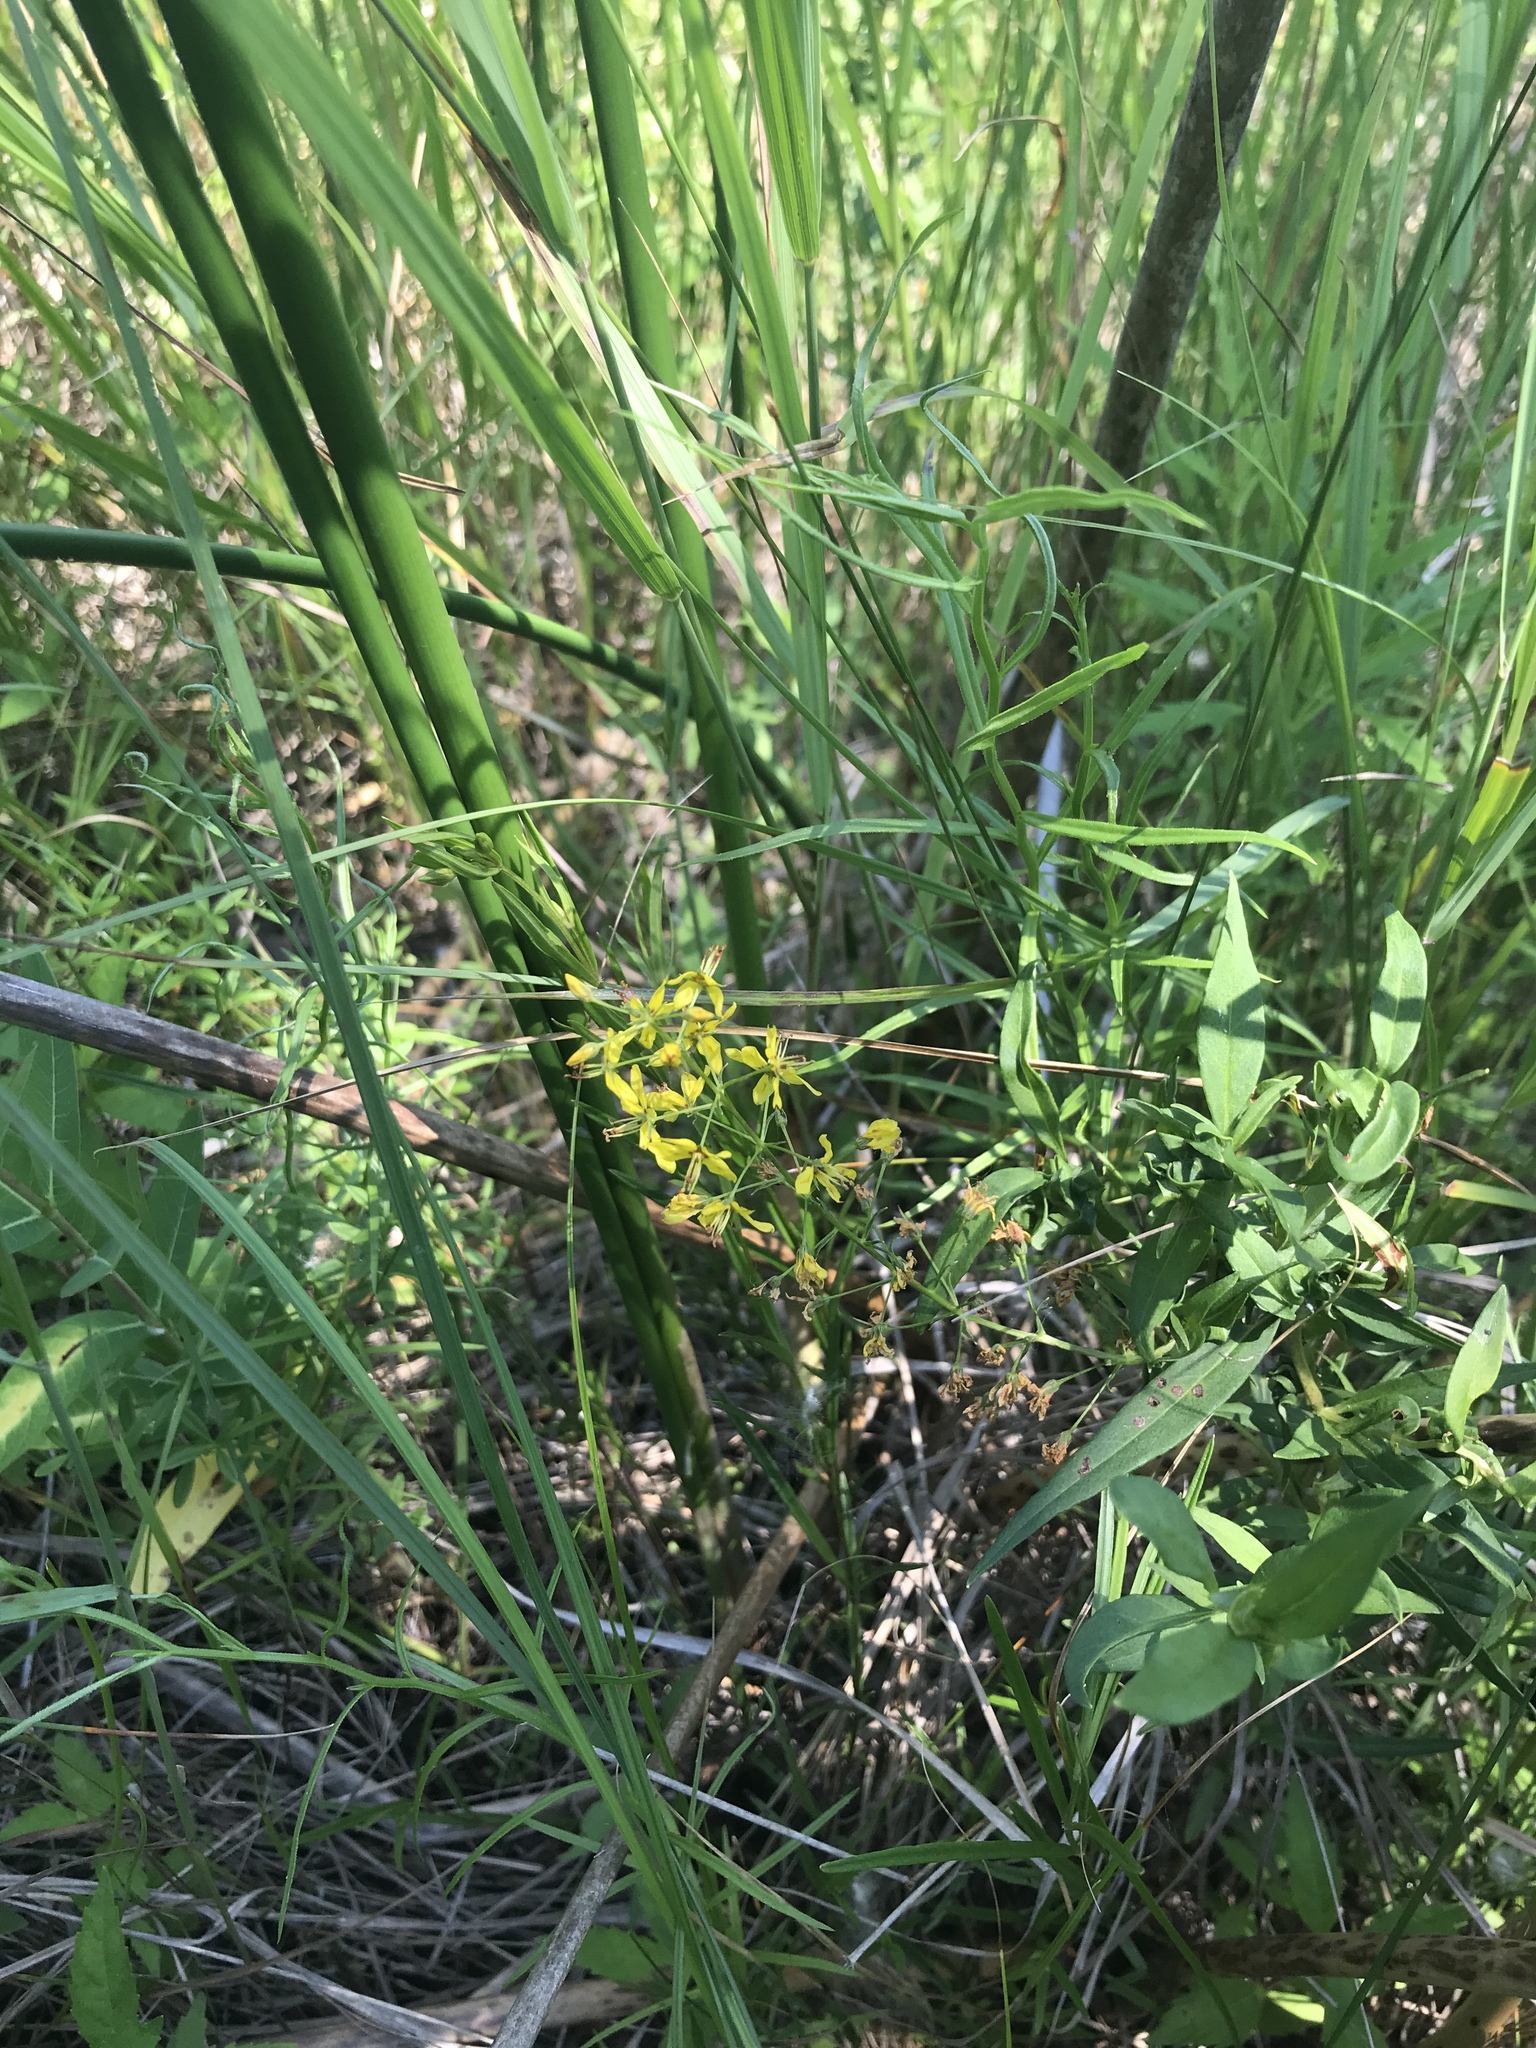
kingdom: Plantae
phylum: Tracheophyta
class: Magnoliopsida
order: Ericales
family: Primulaceae
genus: Lysimachia
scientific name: Lysimachia terrestris
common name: Lake loosestrife
